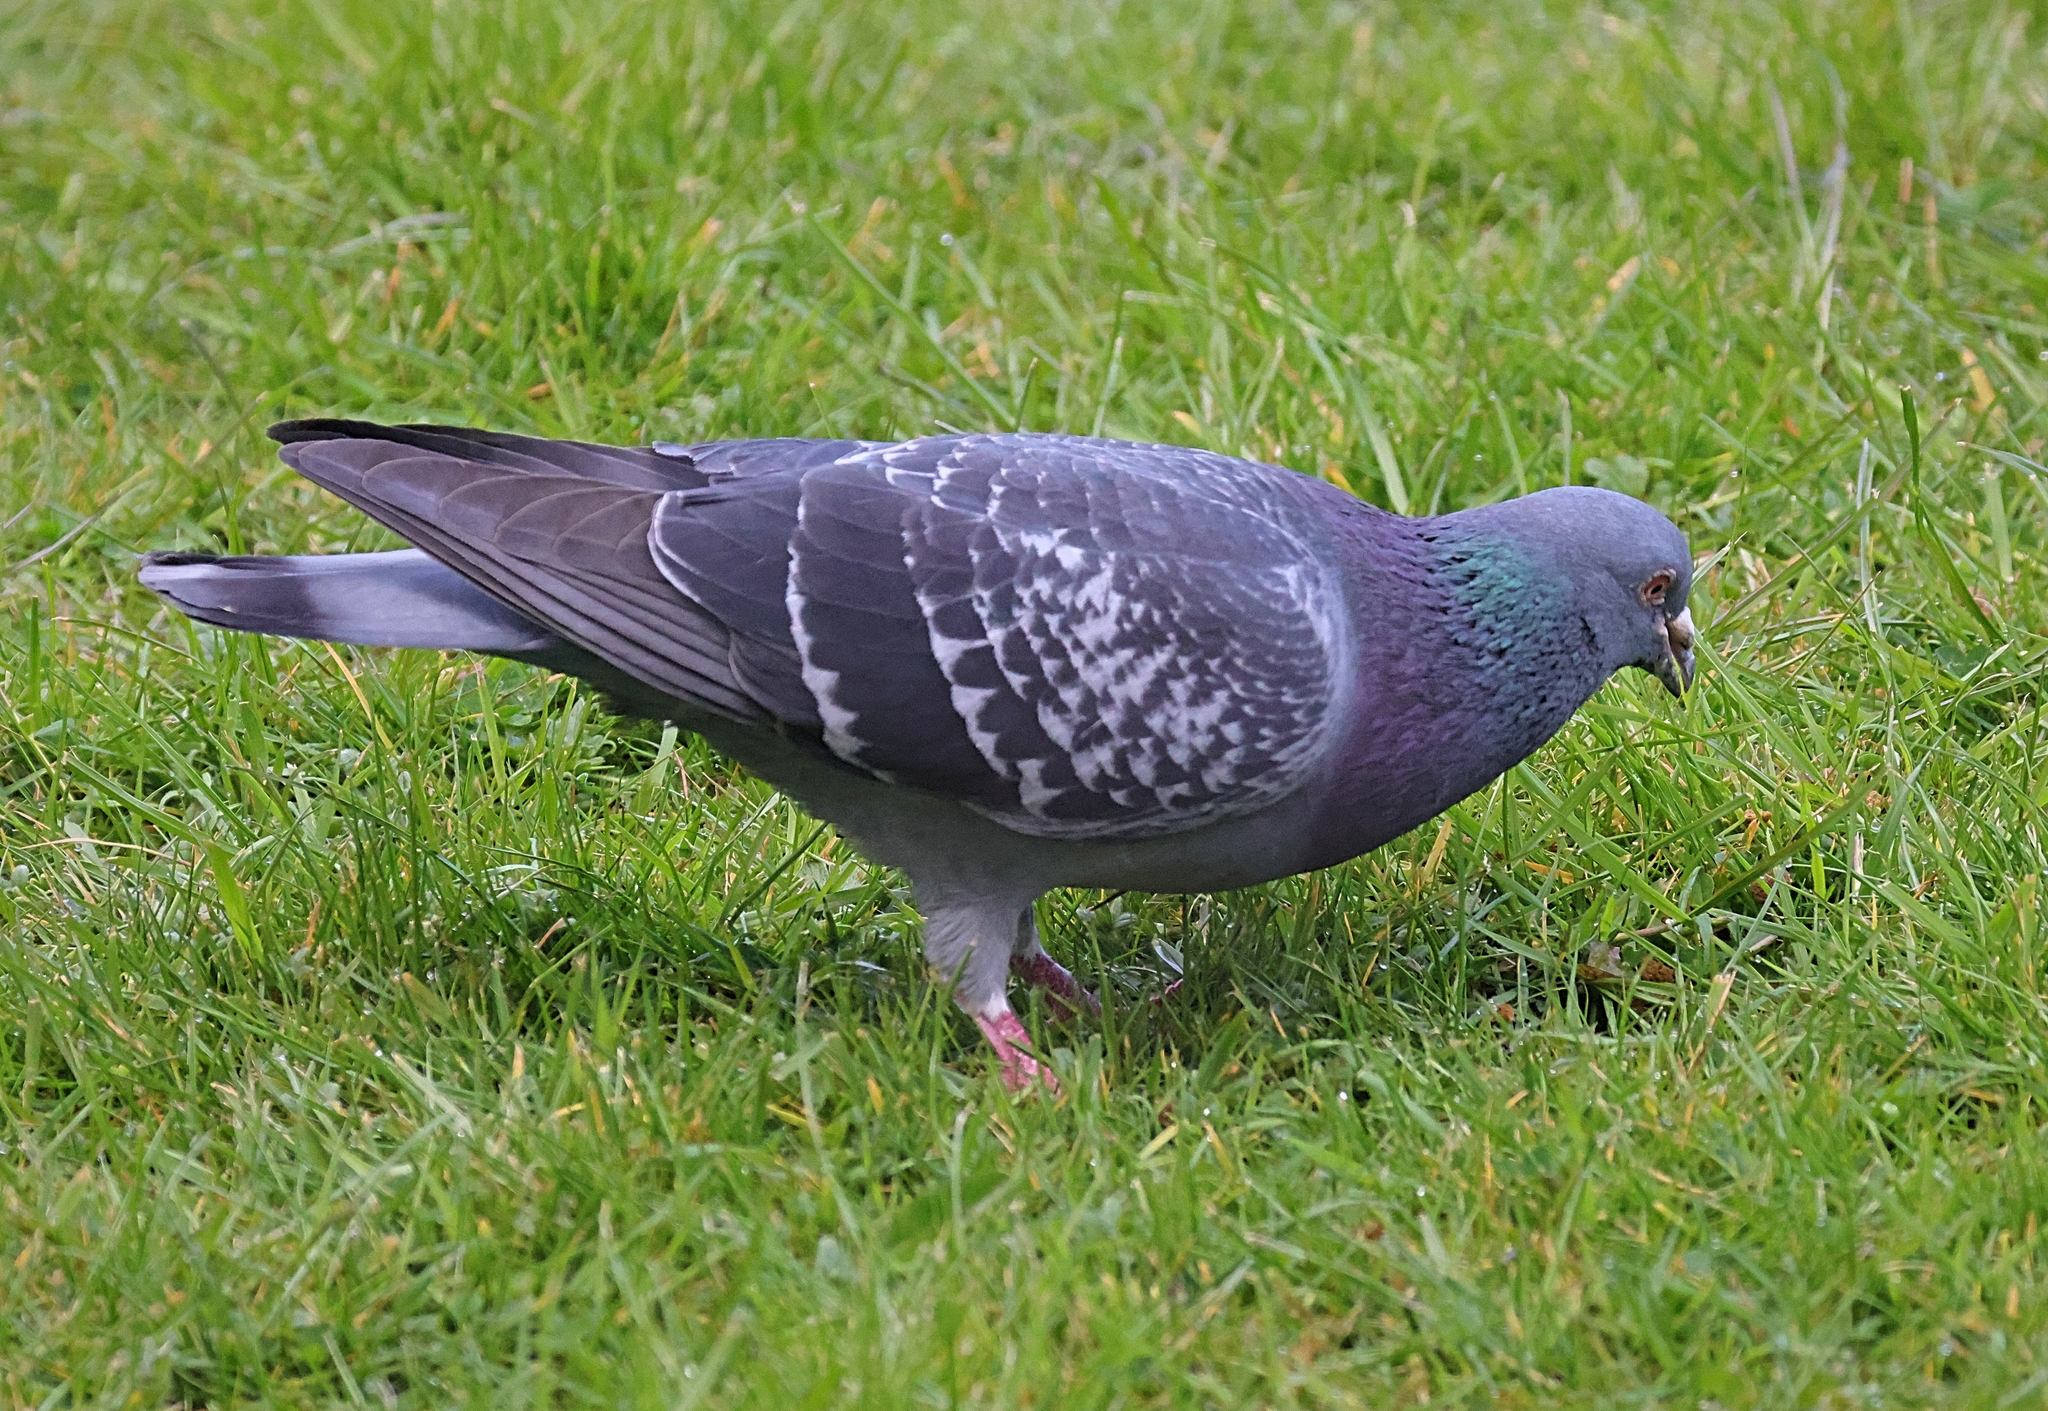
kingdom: Animalia
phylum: Chordata
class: Aves
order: Columbiformes
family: Columbidae
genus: Columba
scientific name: Columba livia
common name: Rock pigeon
